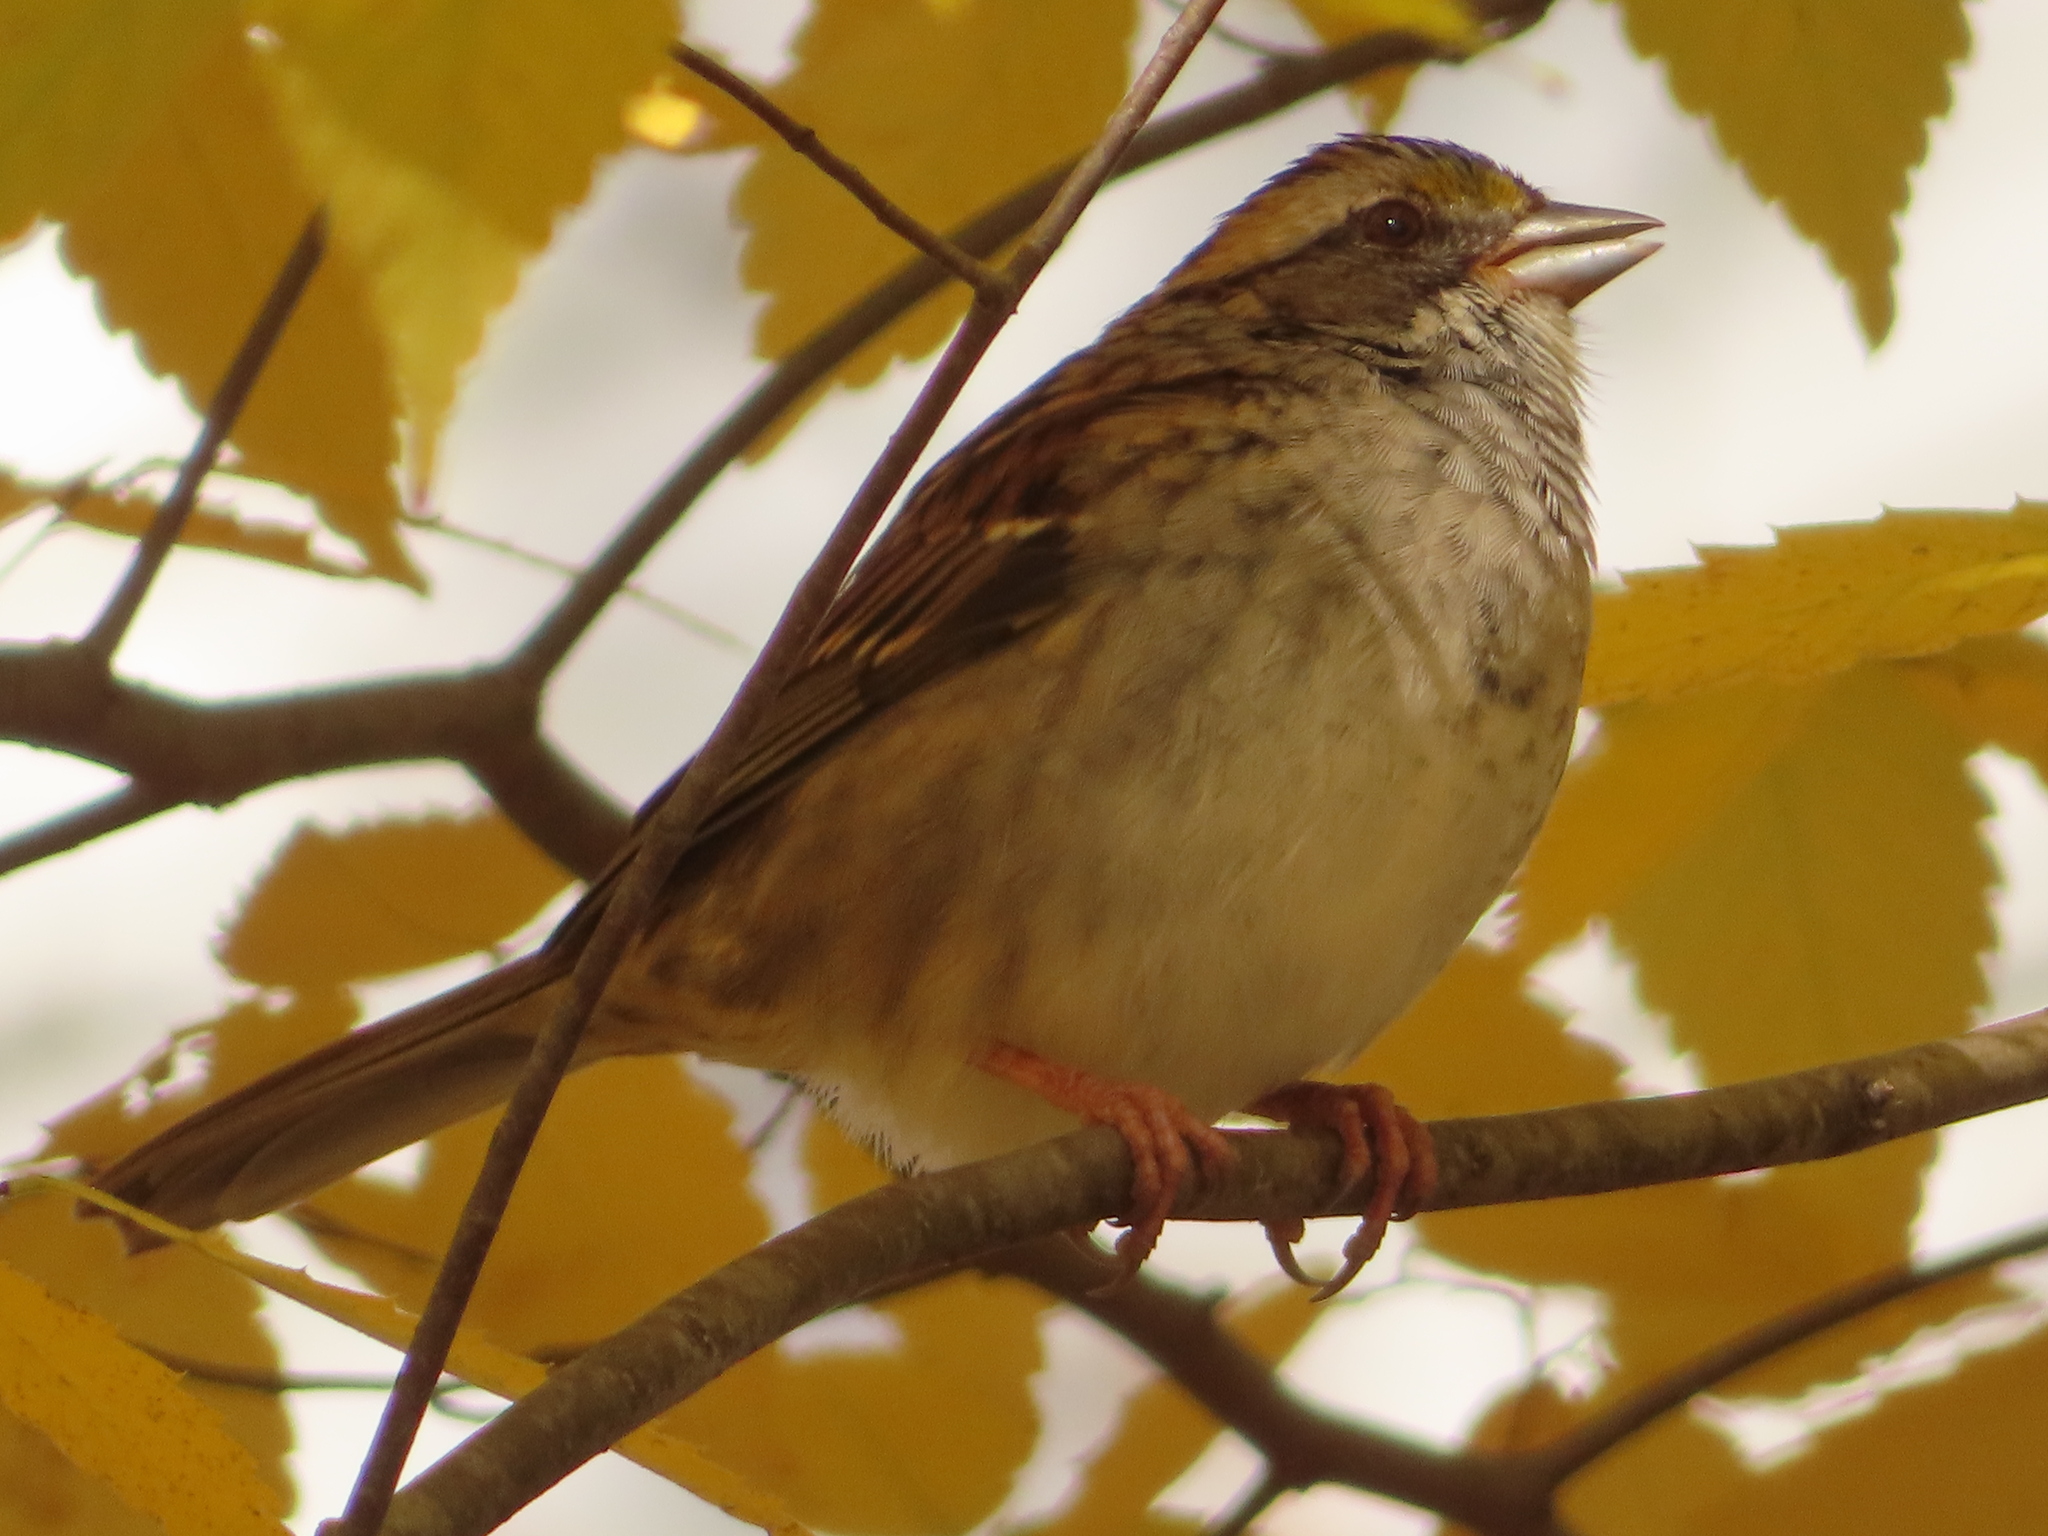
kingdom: Animalia
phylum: Chordata
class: Aves
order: Passeriformes
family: Passerellidae
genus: Zonotrichia
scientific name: Zonotrichia albicollis
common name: White-throated sparrow
